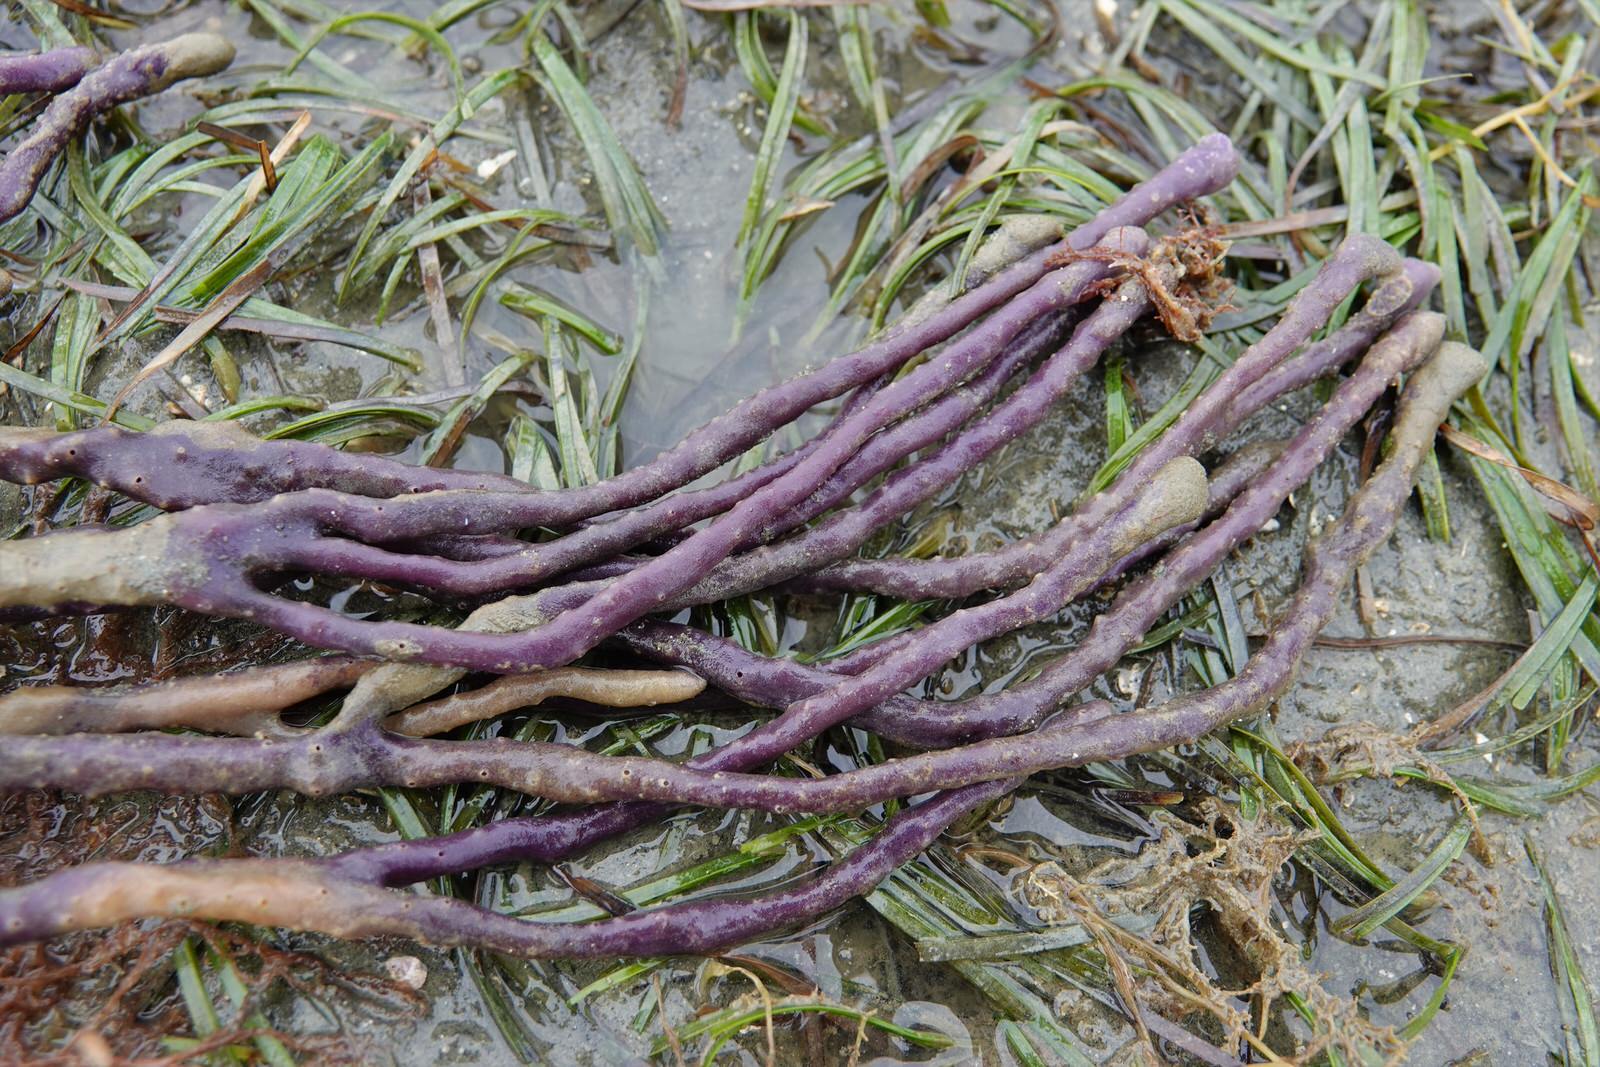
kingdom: Animalia
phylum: Porifera
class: Demospongiae
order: Haplosclerida
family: Callyspongiidae
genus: Callyspongia
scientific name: Callyspongia nuda
